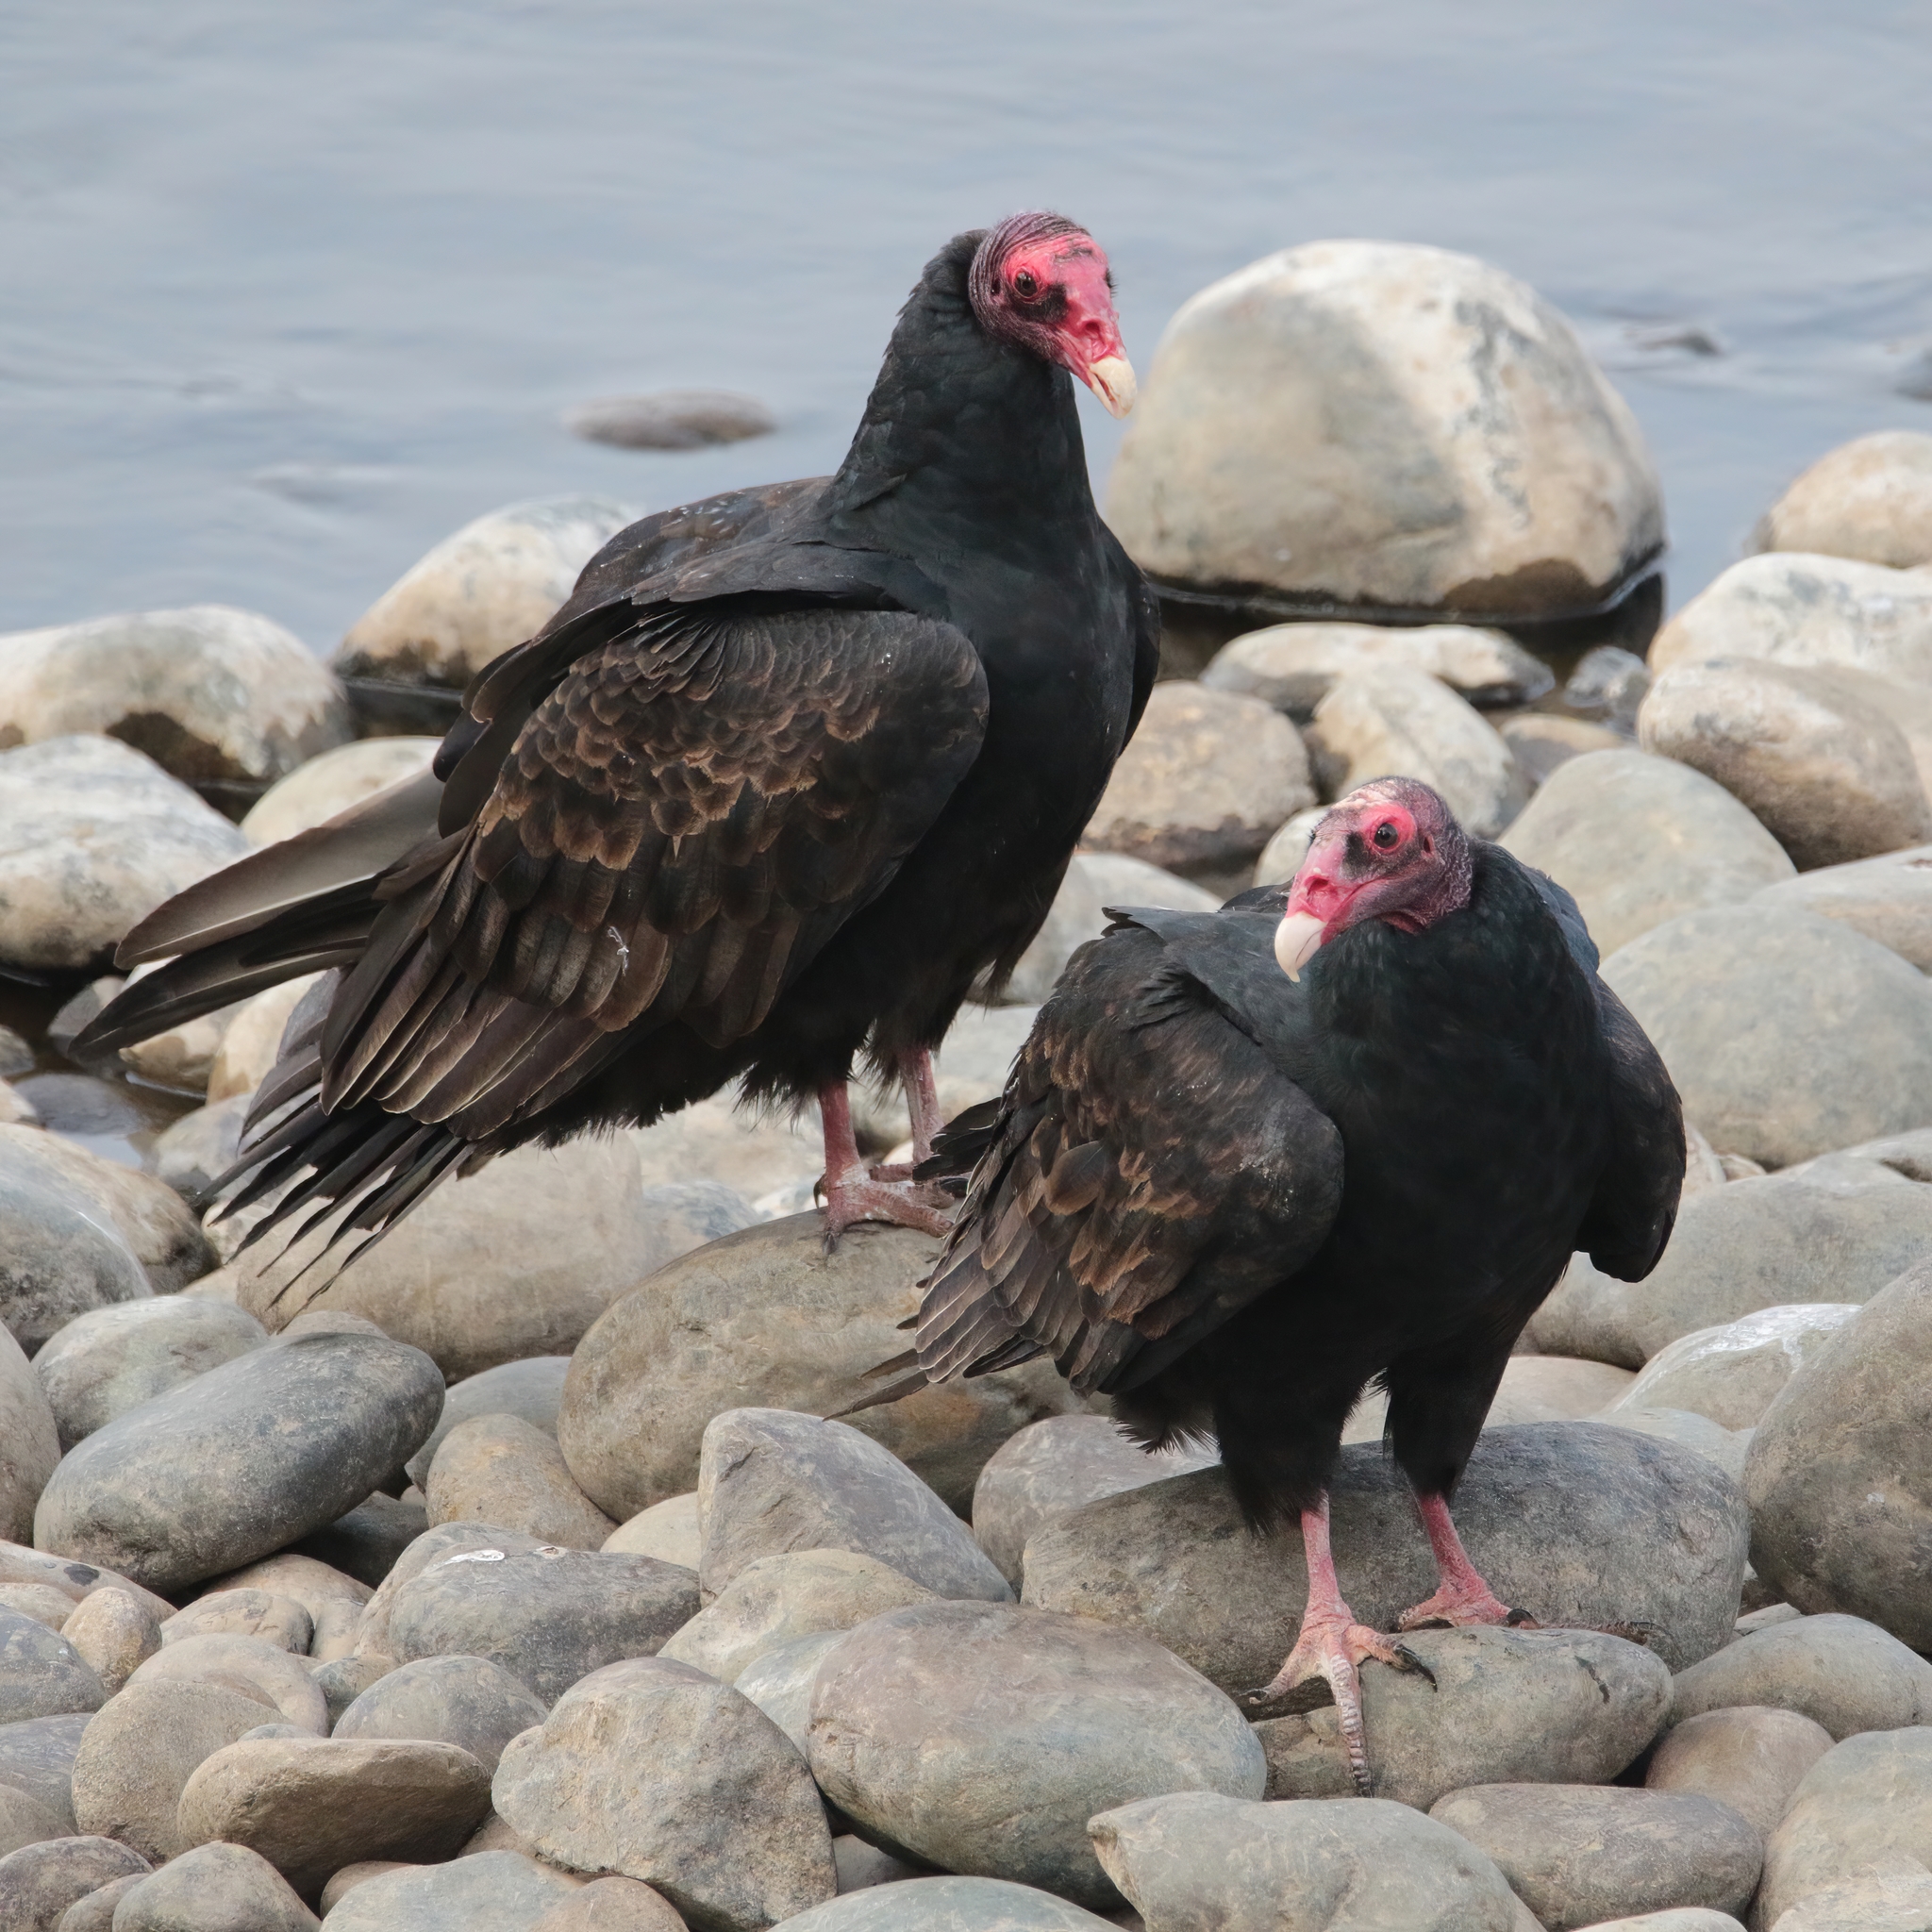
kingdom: Animalia
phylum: Chordata
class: Aves
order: Accipitriformes
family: Cathartidae
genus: Cathartes
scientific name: Cathartes aura
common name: Turkey vulture
